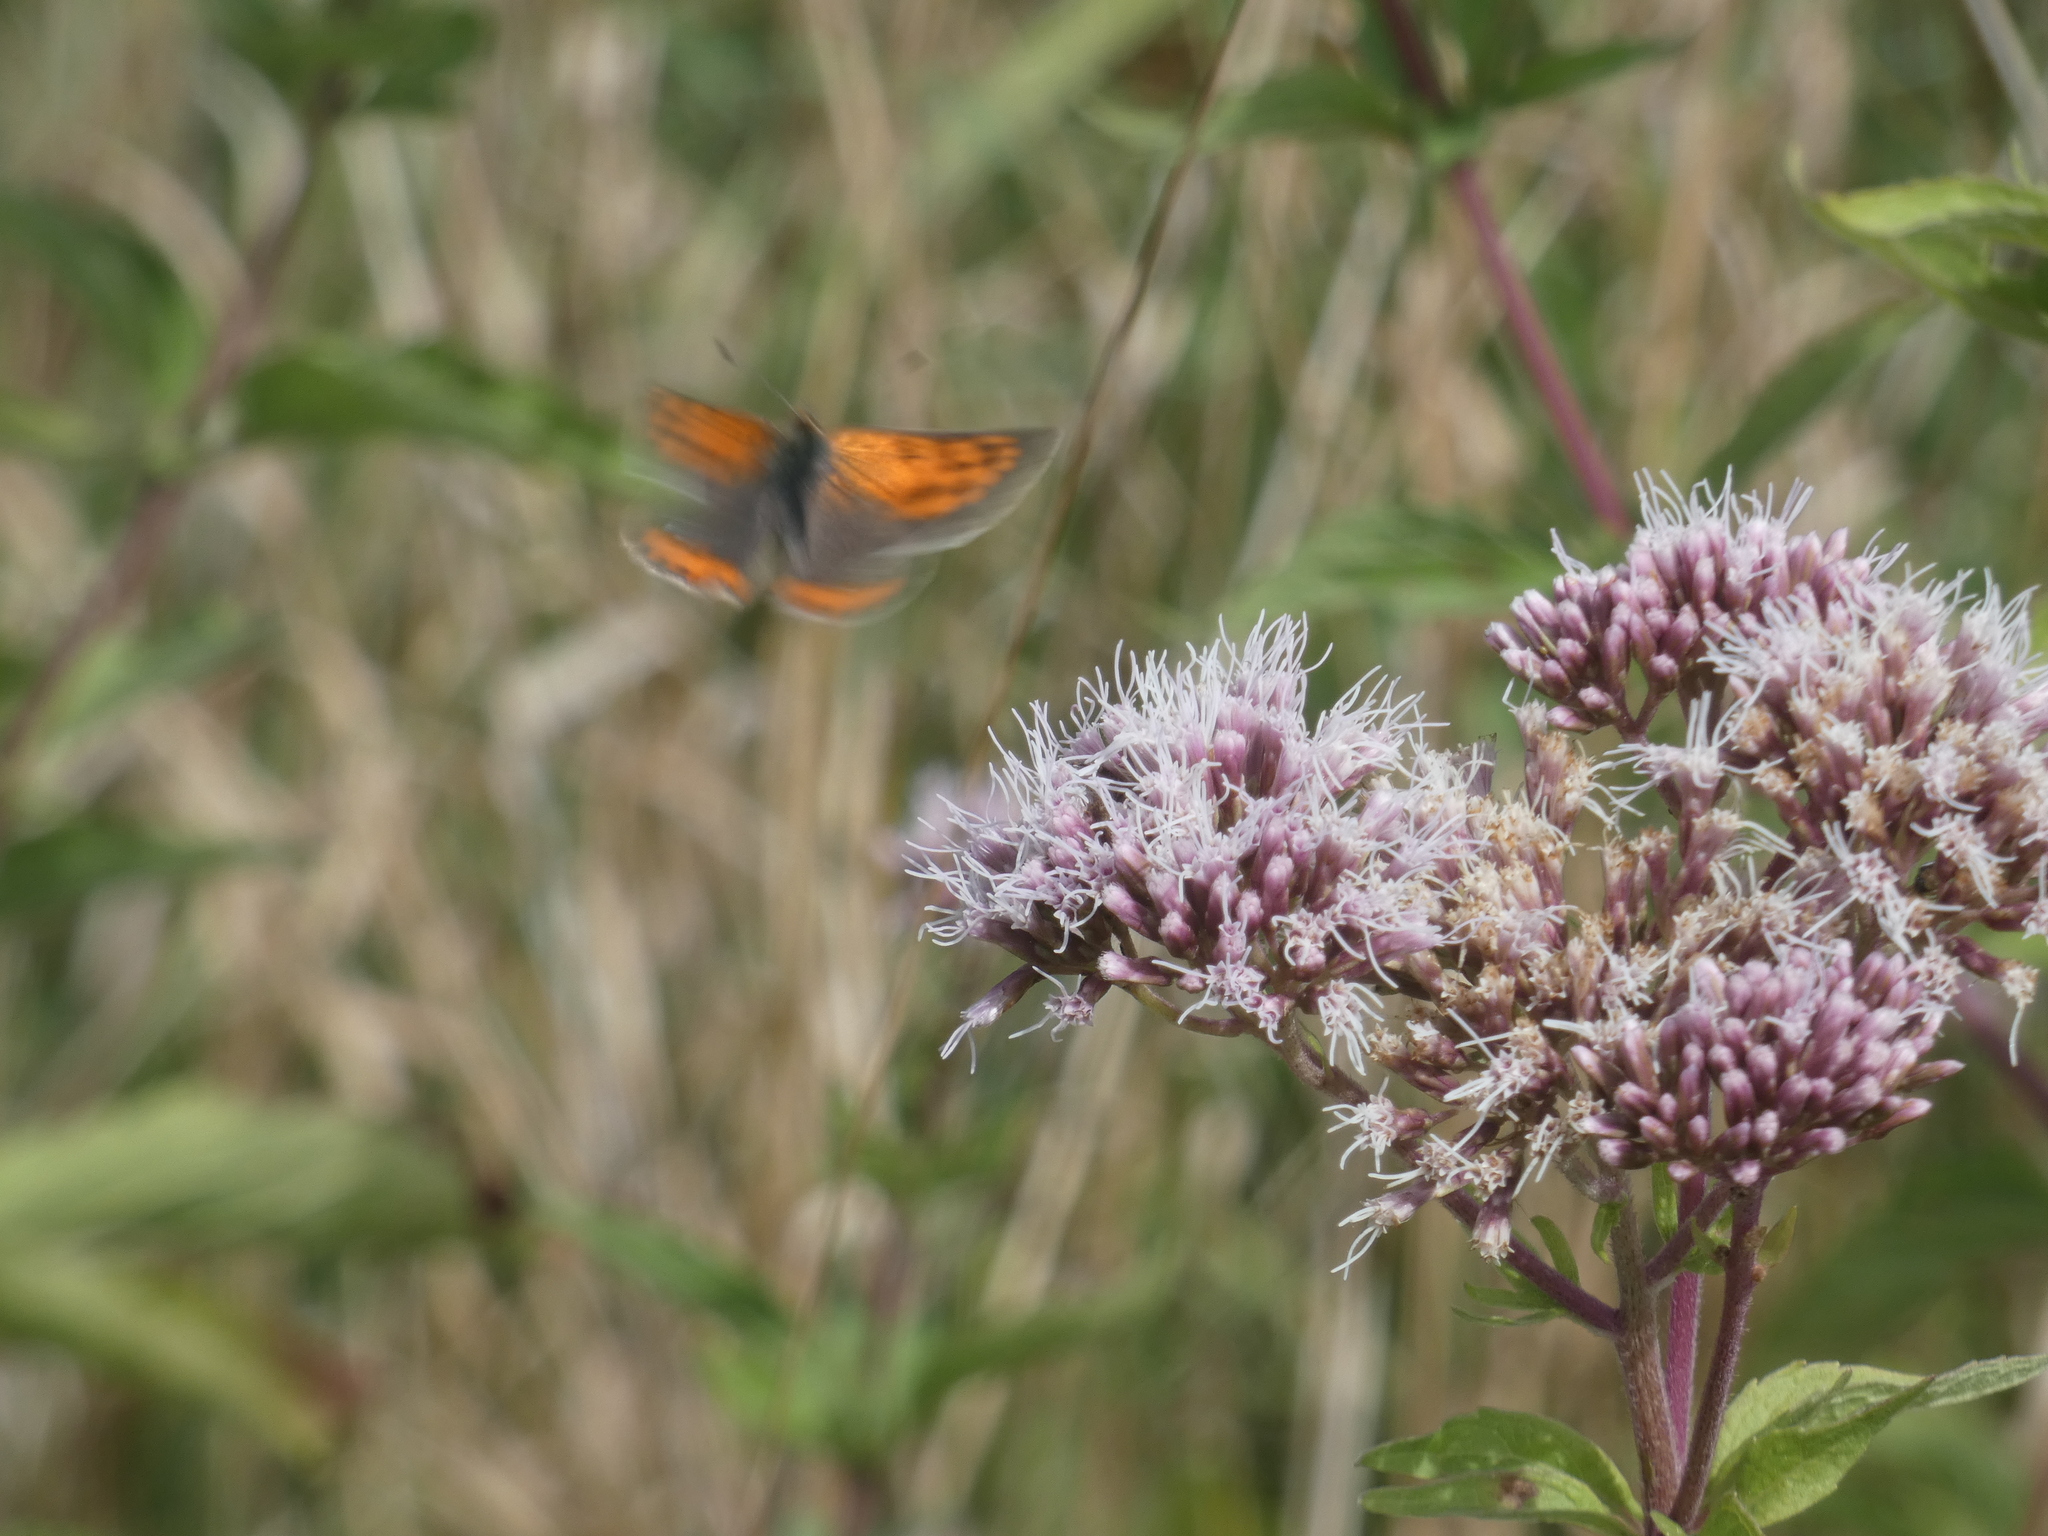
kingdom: Animalia
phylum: Arthropoda
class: Insecta
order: Lepidoptera
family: Lycaenidae
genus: Lycaena
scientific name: Lycaena phlaeas
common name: Small copper
